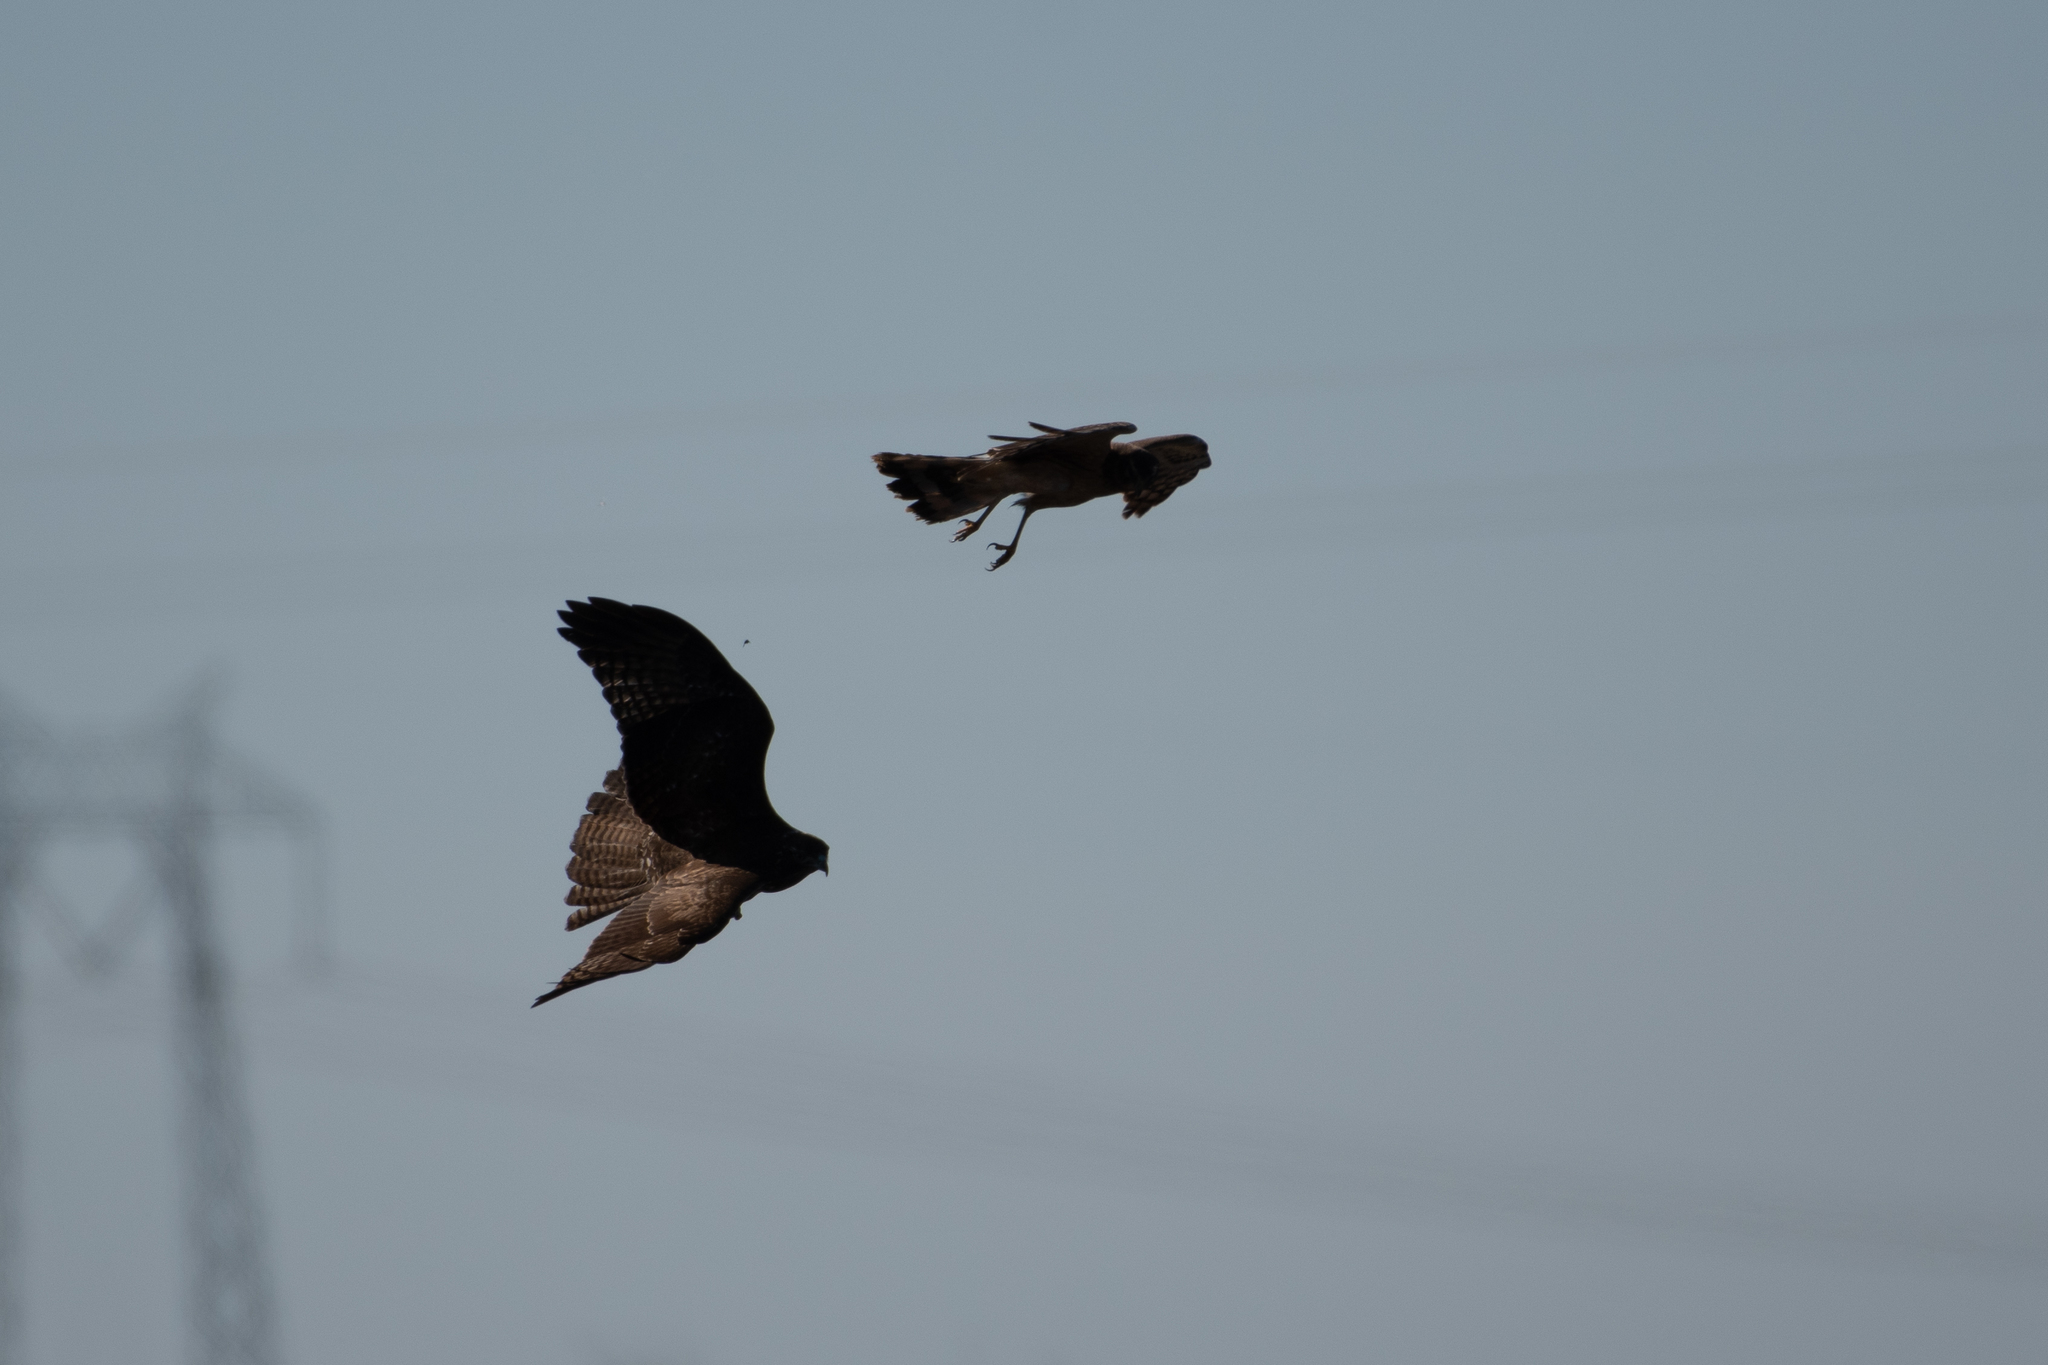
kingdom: Animalia
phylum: Chordata
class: Aves
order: Accipitriformes
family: Accipitridae
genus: Buteo
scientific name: Buteo jamaicensis
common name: Red-tailed hawk
